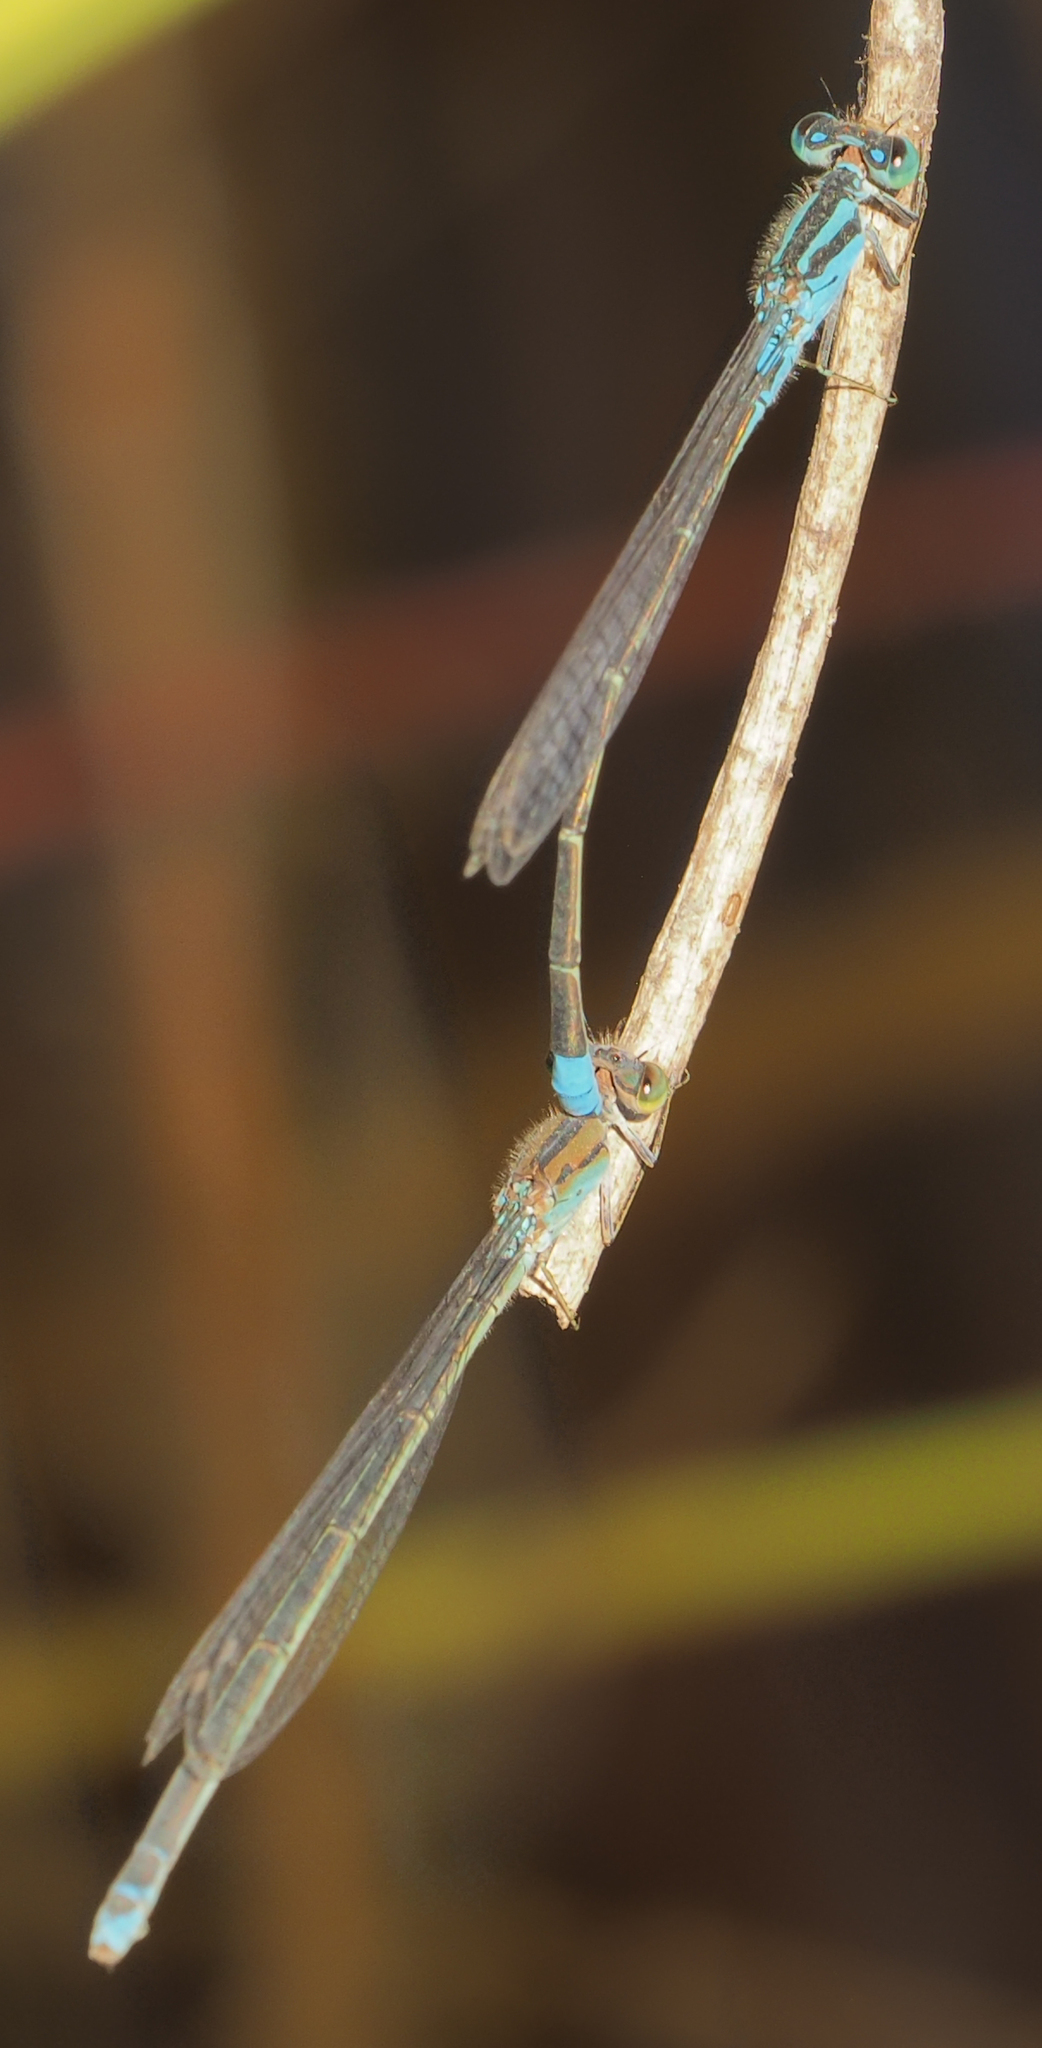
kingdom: Animalia
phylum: Arthropoda
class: Insecta
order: Odonata
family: Coenagrionidae
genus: Pseudagrion
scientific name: Pseudagrion coeleste
